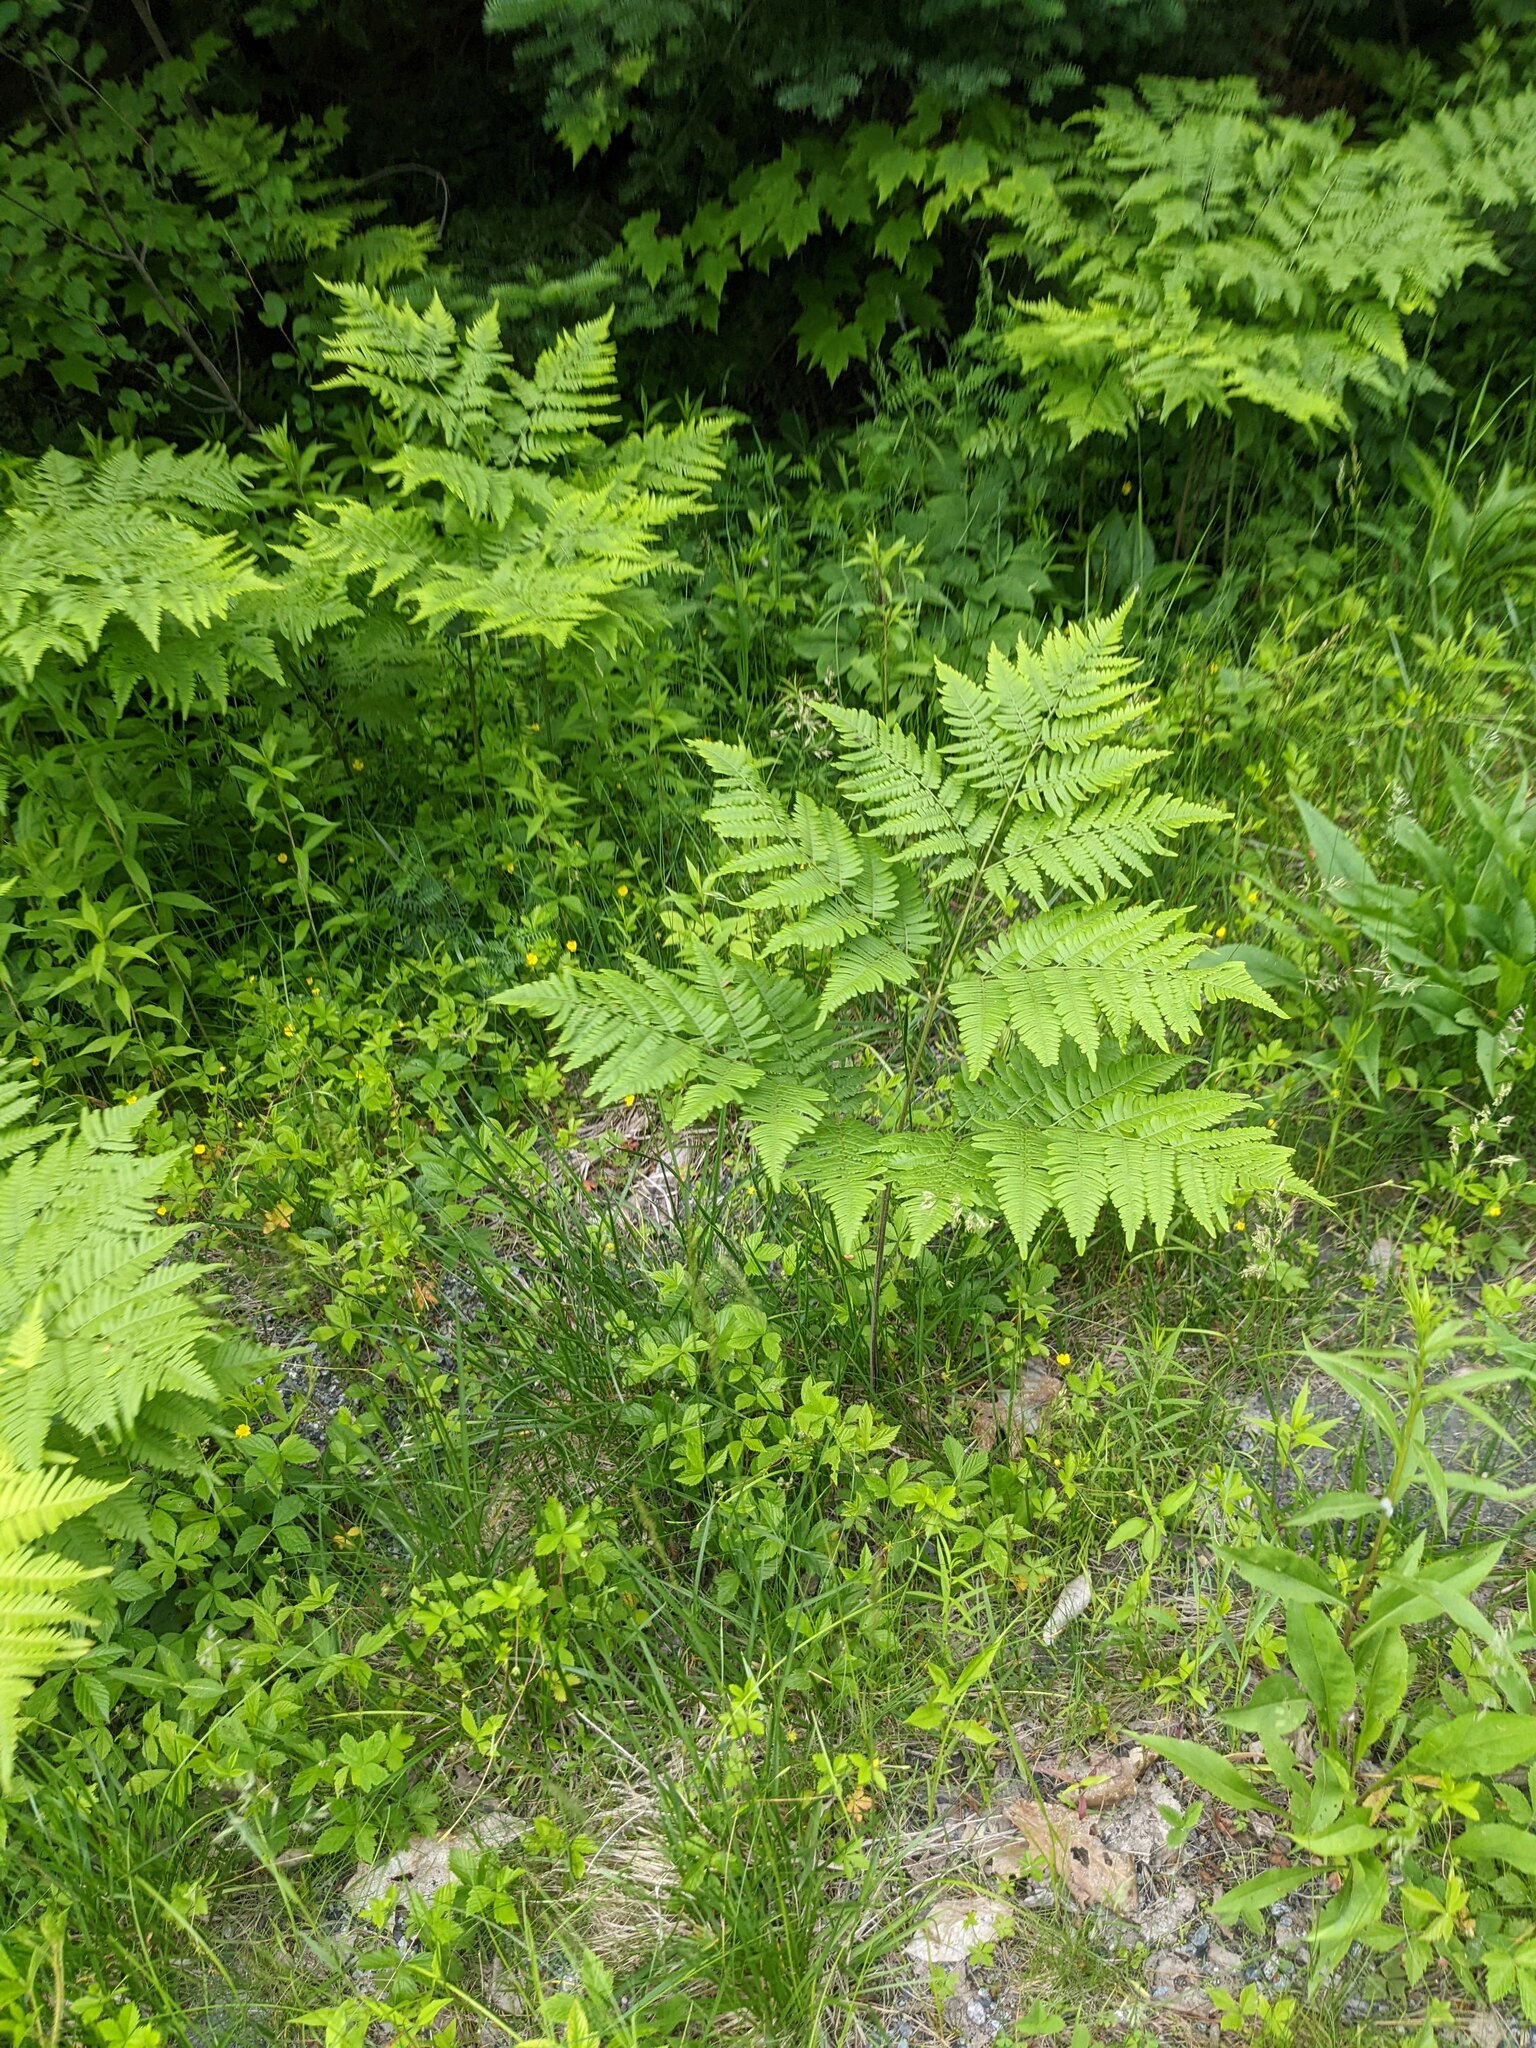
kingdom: Plantae
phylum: Tracheophyta
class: Polypodiopsida
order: Polypodiales
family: Dennstaedtiaceae
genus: Pteridium
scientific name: Pteridium aquilinum
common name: Bracken
